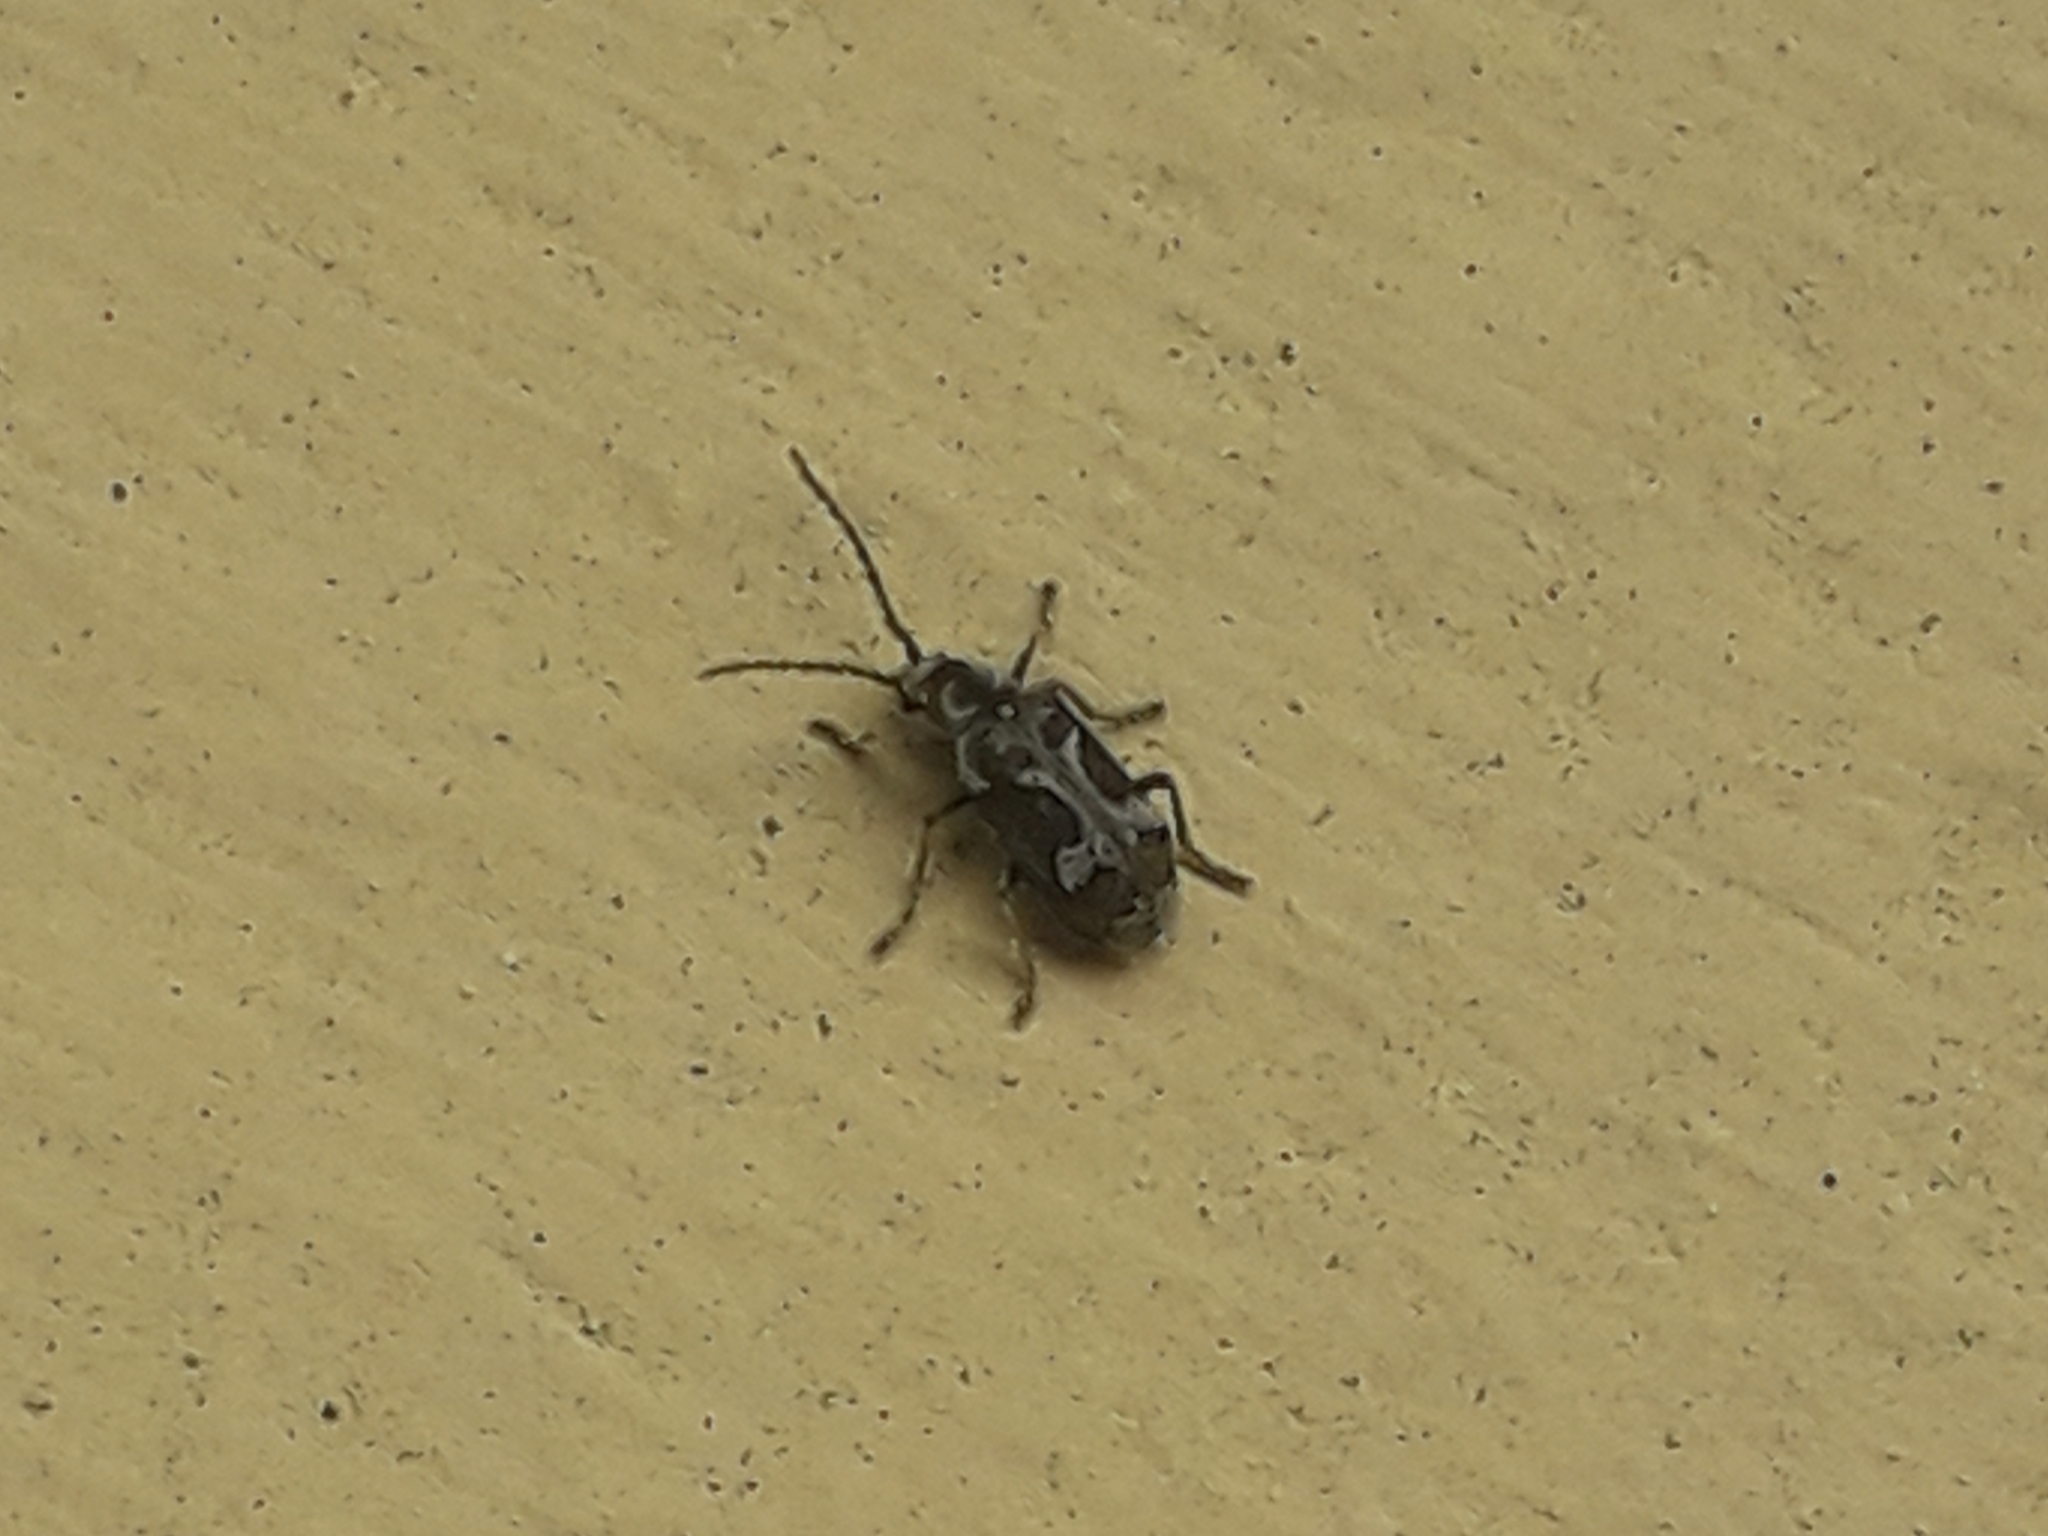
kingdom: Animalia
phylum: Arthropoda
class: Insecta
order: Coleoptera
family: Anobiidae
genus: Ptinomorphus
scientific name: Ptinomorphus imperialis
